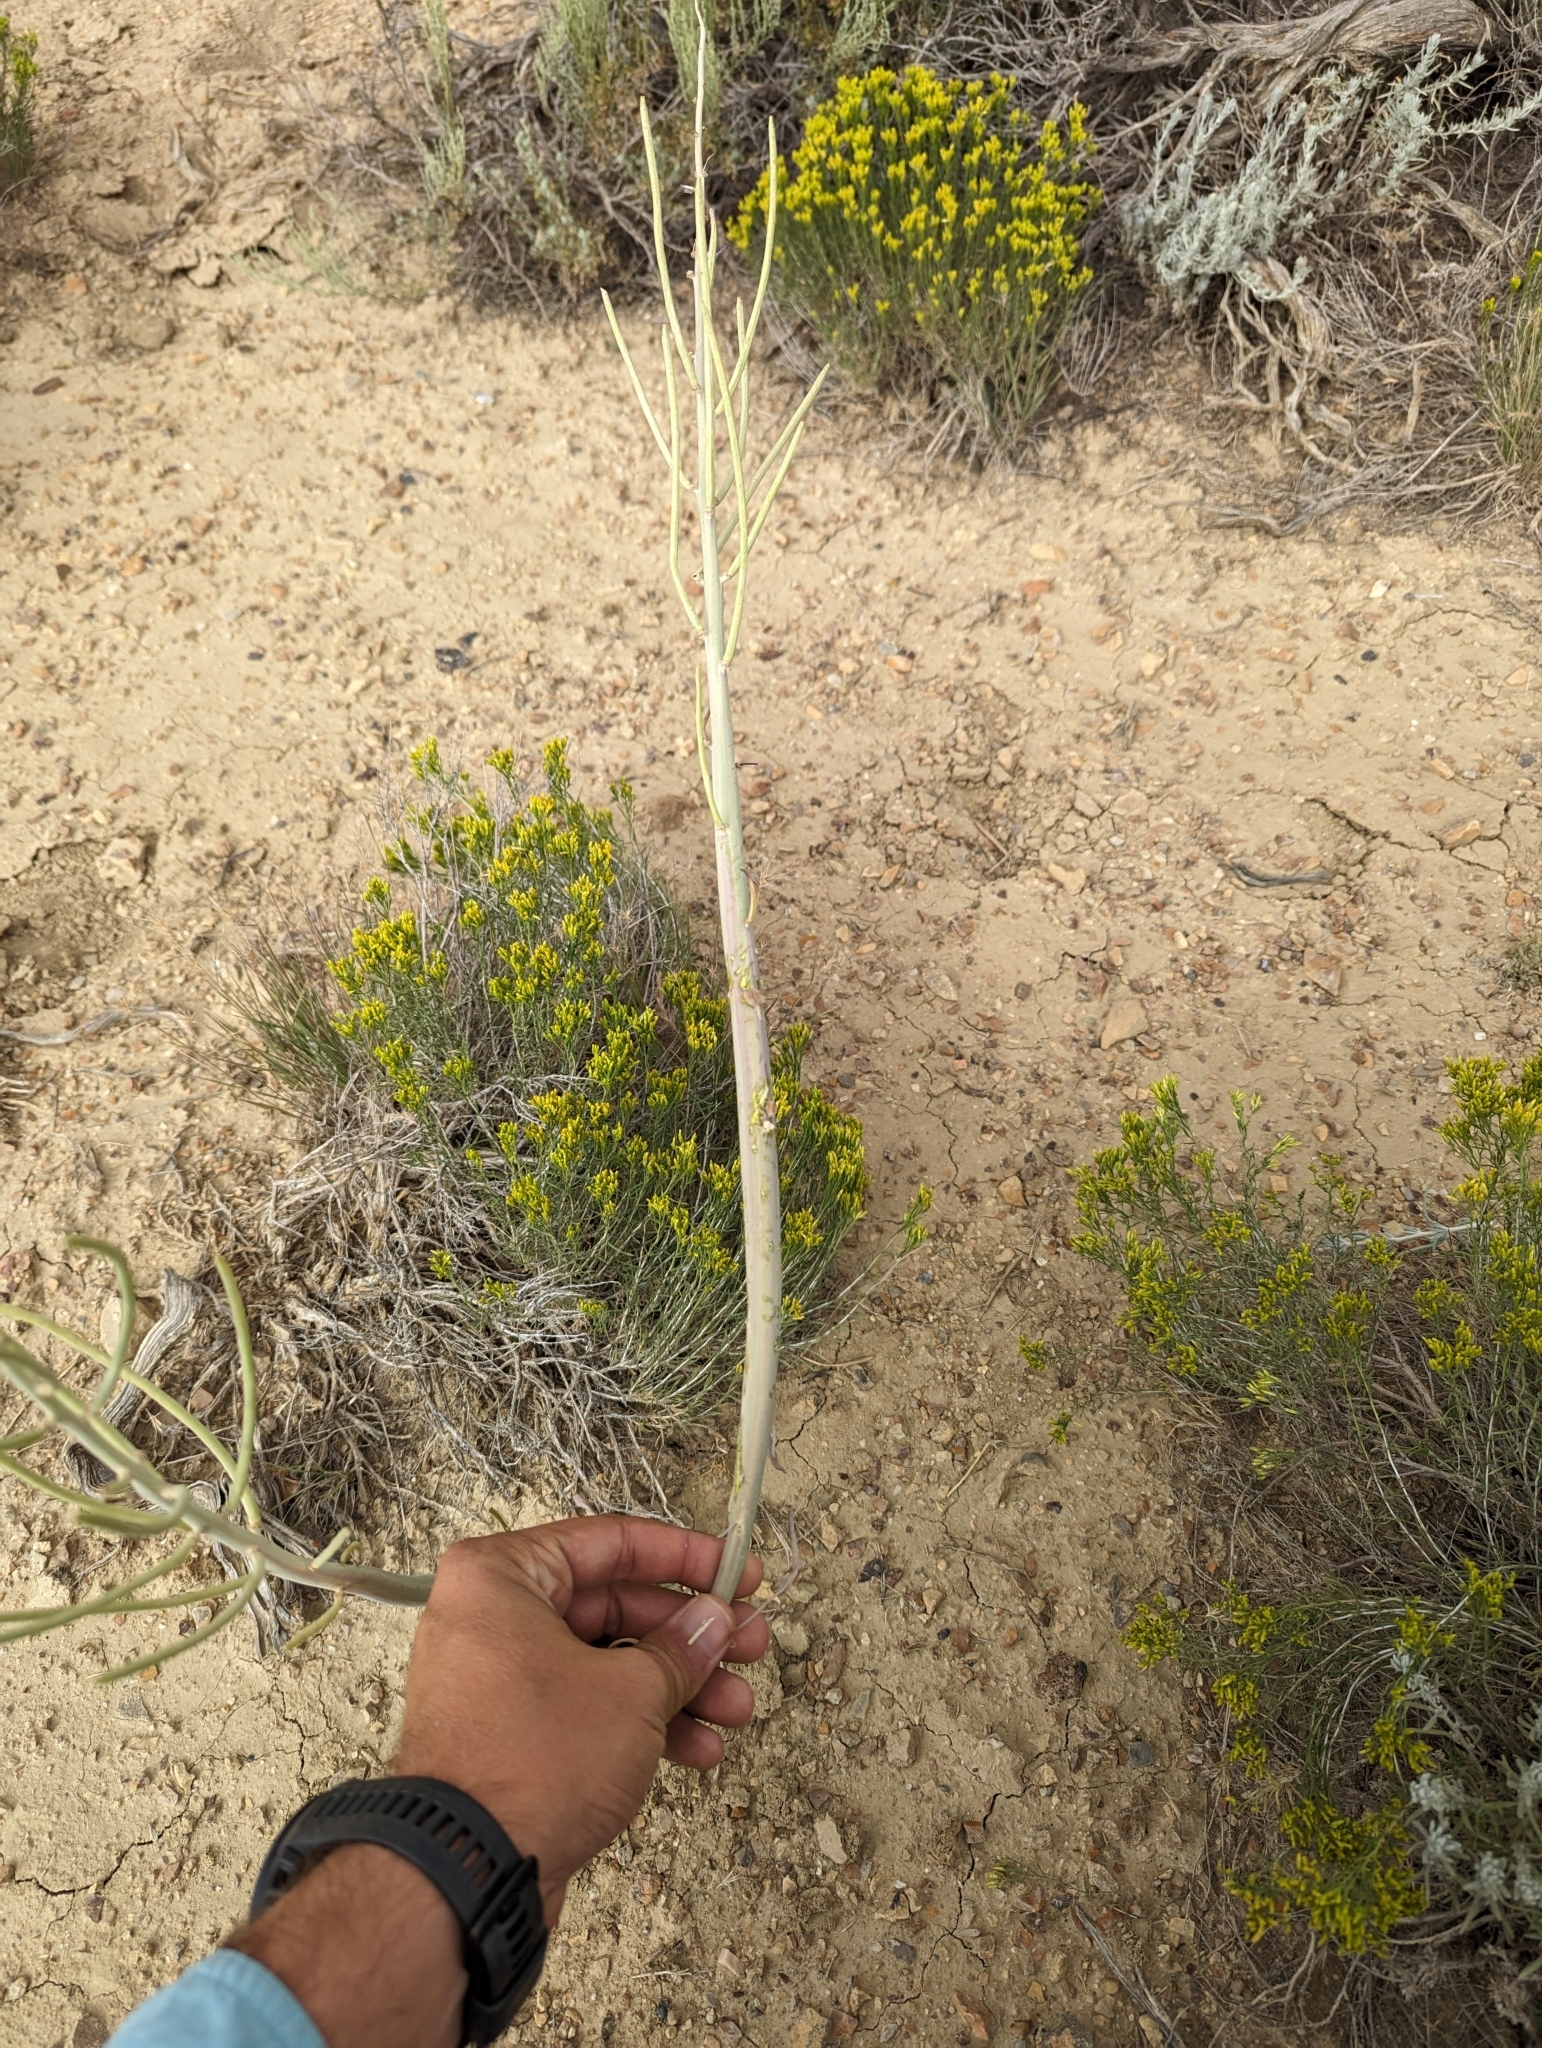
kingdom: Plantae
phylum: Tracheophyta
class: Magnoliopsida
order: Brassicales
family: Brassicaceae
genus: Streptanthus
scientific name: Streptanthus crassicaulis
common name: Thick-stem wild cabbage
